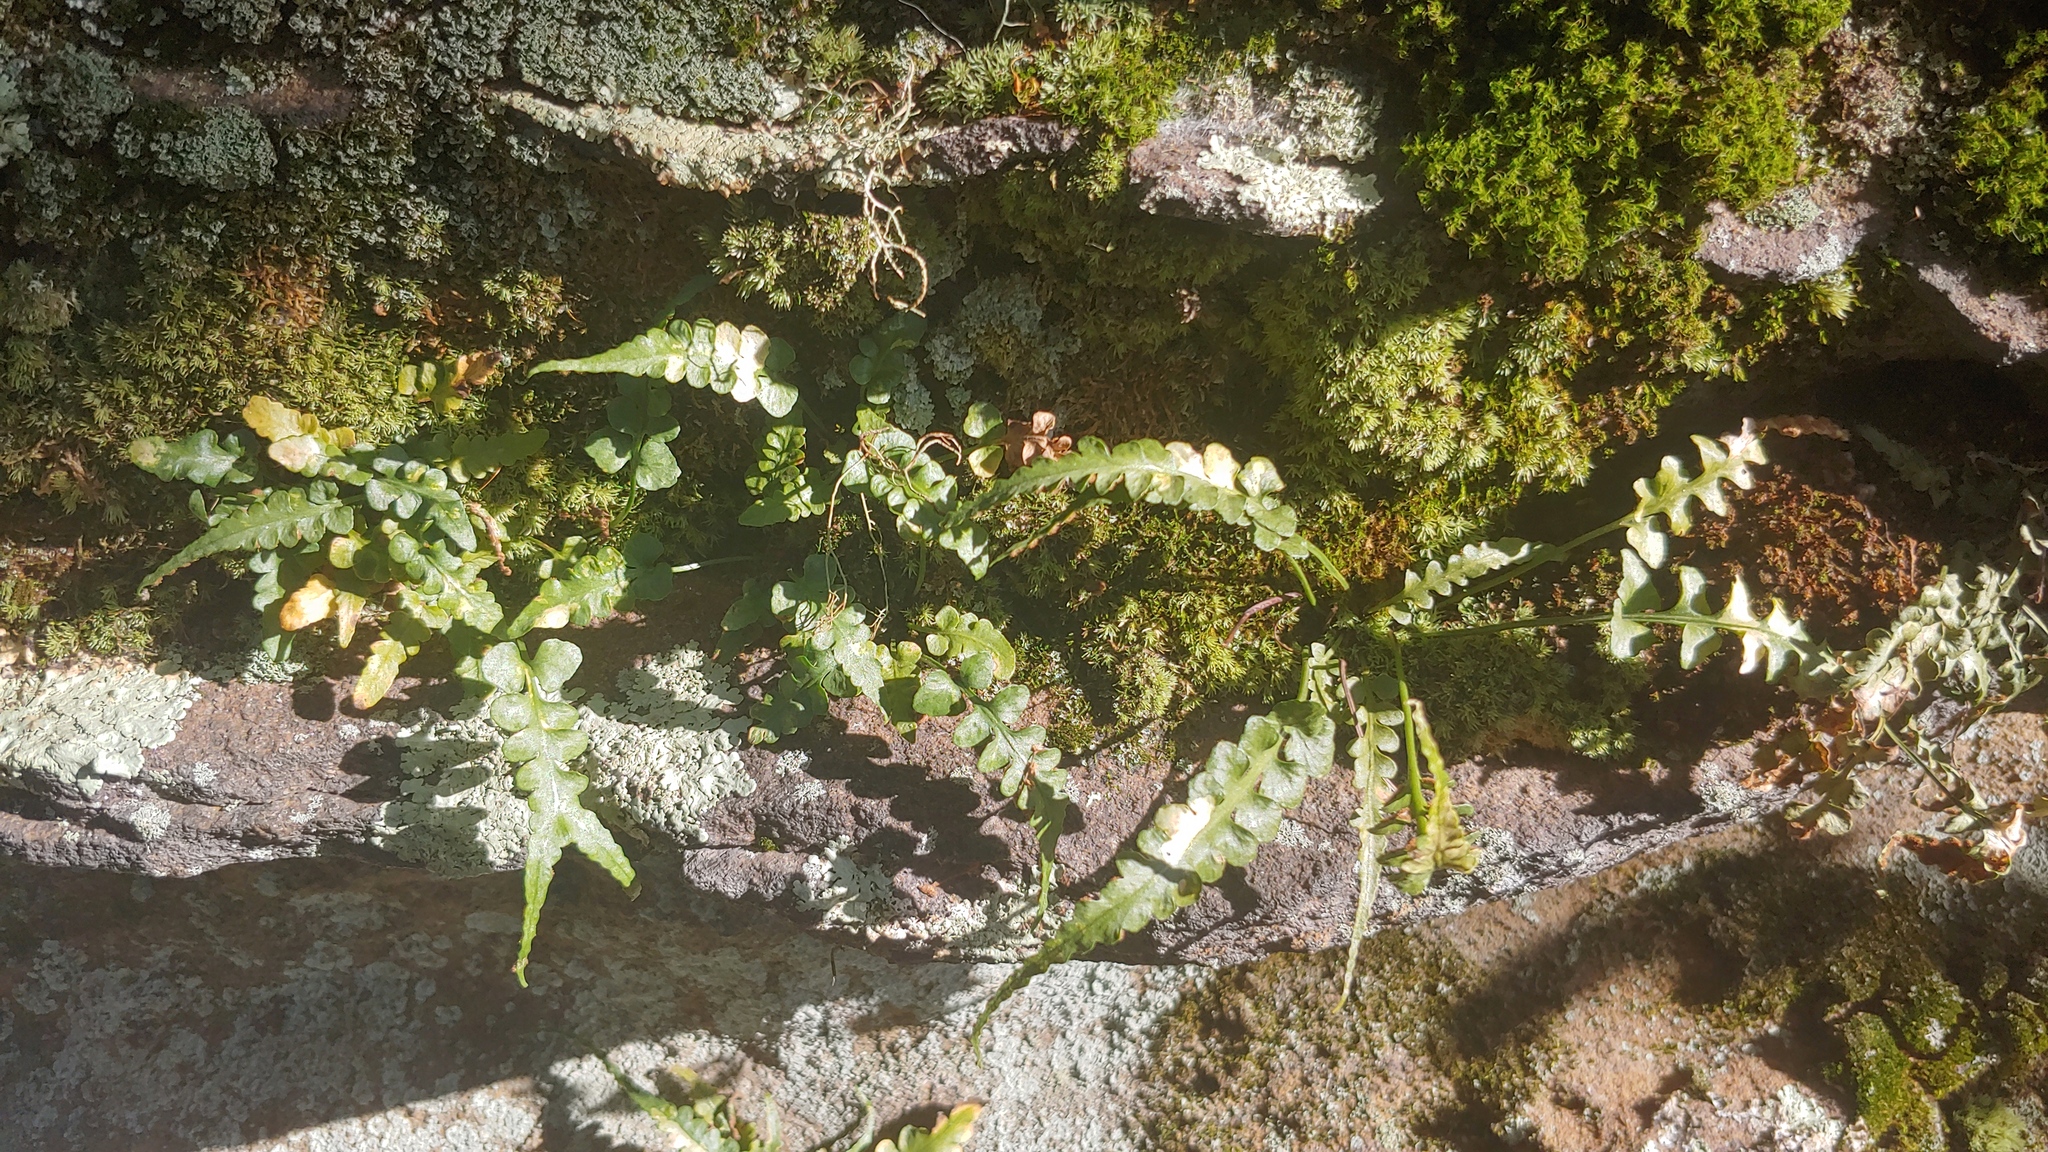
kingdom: Plantae
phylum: Tracheophyta
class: Polypodiopsida
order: Polypodiales
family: Aspleniaceae
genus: Asplenium
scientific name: Asplenium pinnatifidum
